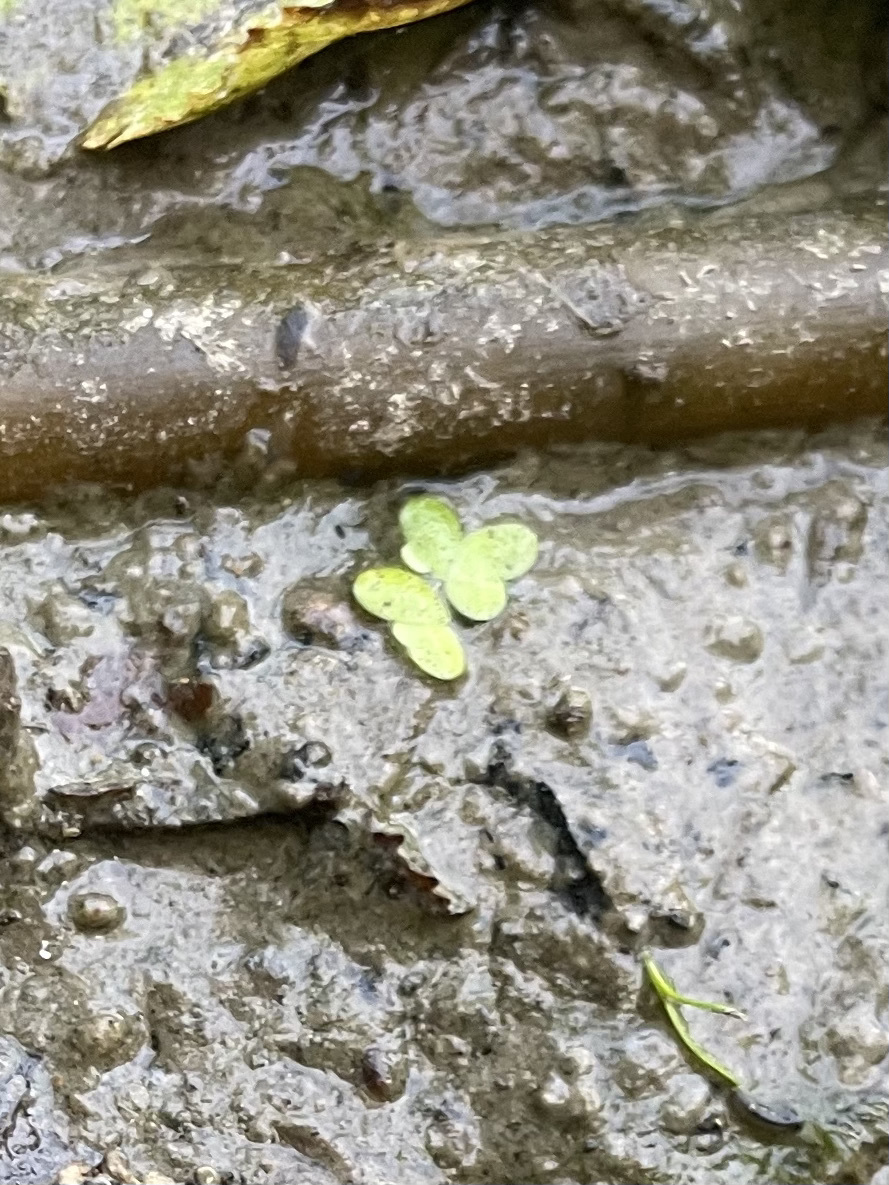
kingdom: Plantae
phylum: Tracheophyta
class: Liliopsida
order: Alismatales
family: Araceae
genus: Lemna
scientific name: Lemna minor
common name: Common duckweed
